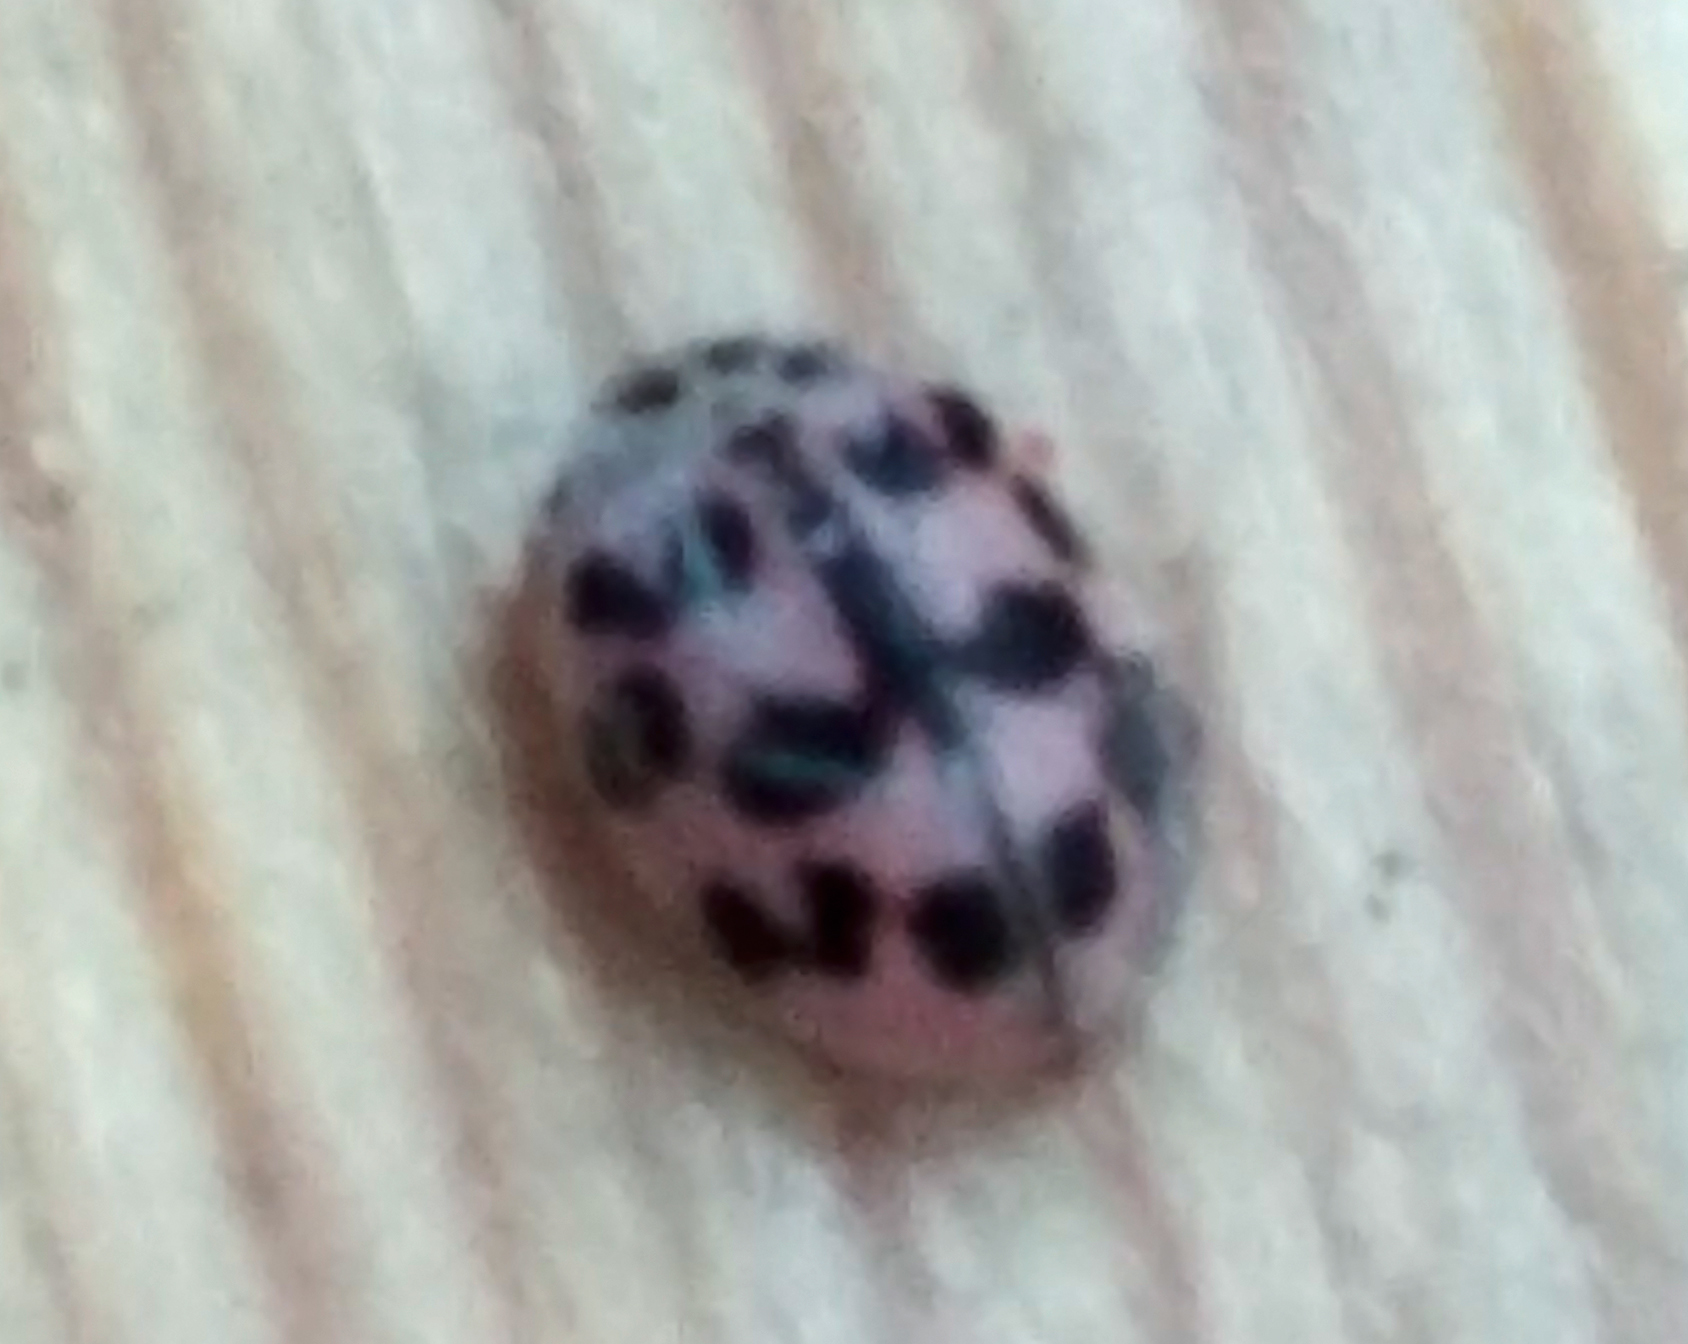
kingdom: Animalia
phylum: Arthropoda
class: Insecta
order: Coleoptera
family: Coccinellidae
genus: Oenopia
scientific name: Oenopia conglobata
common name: Ladybird beetle
